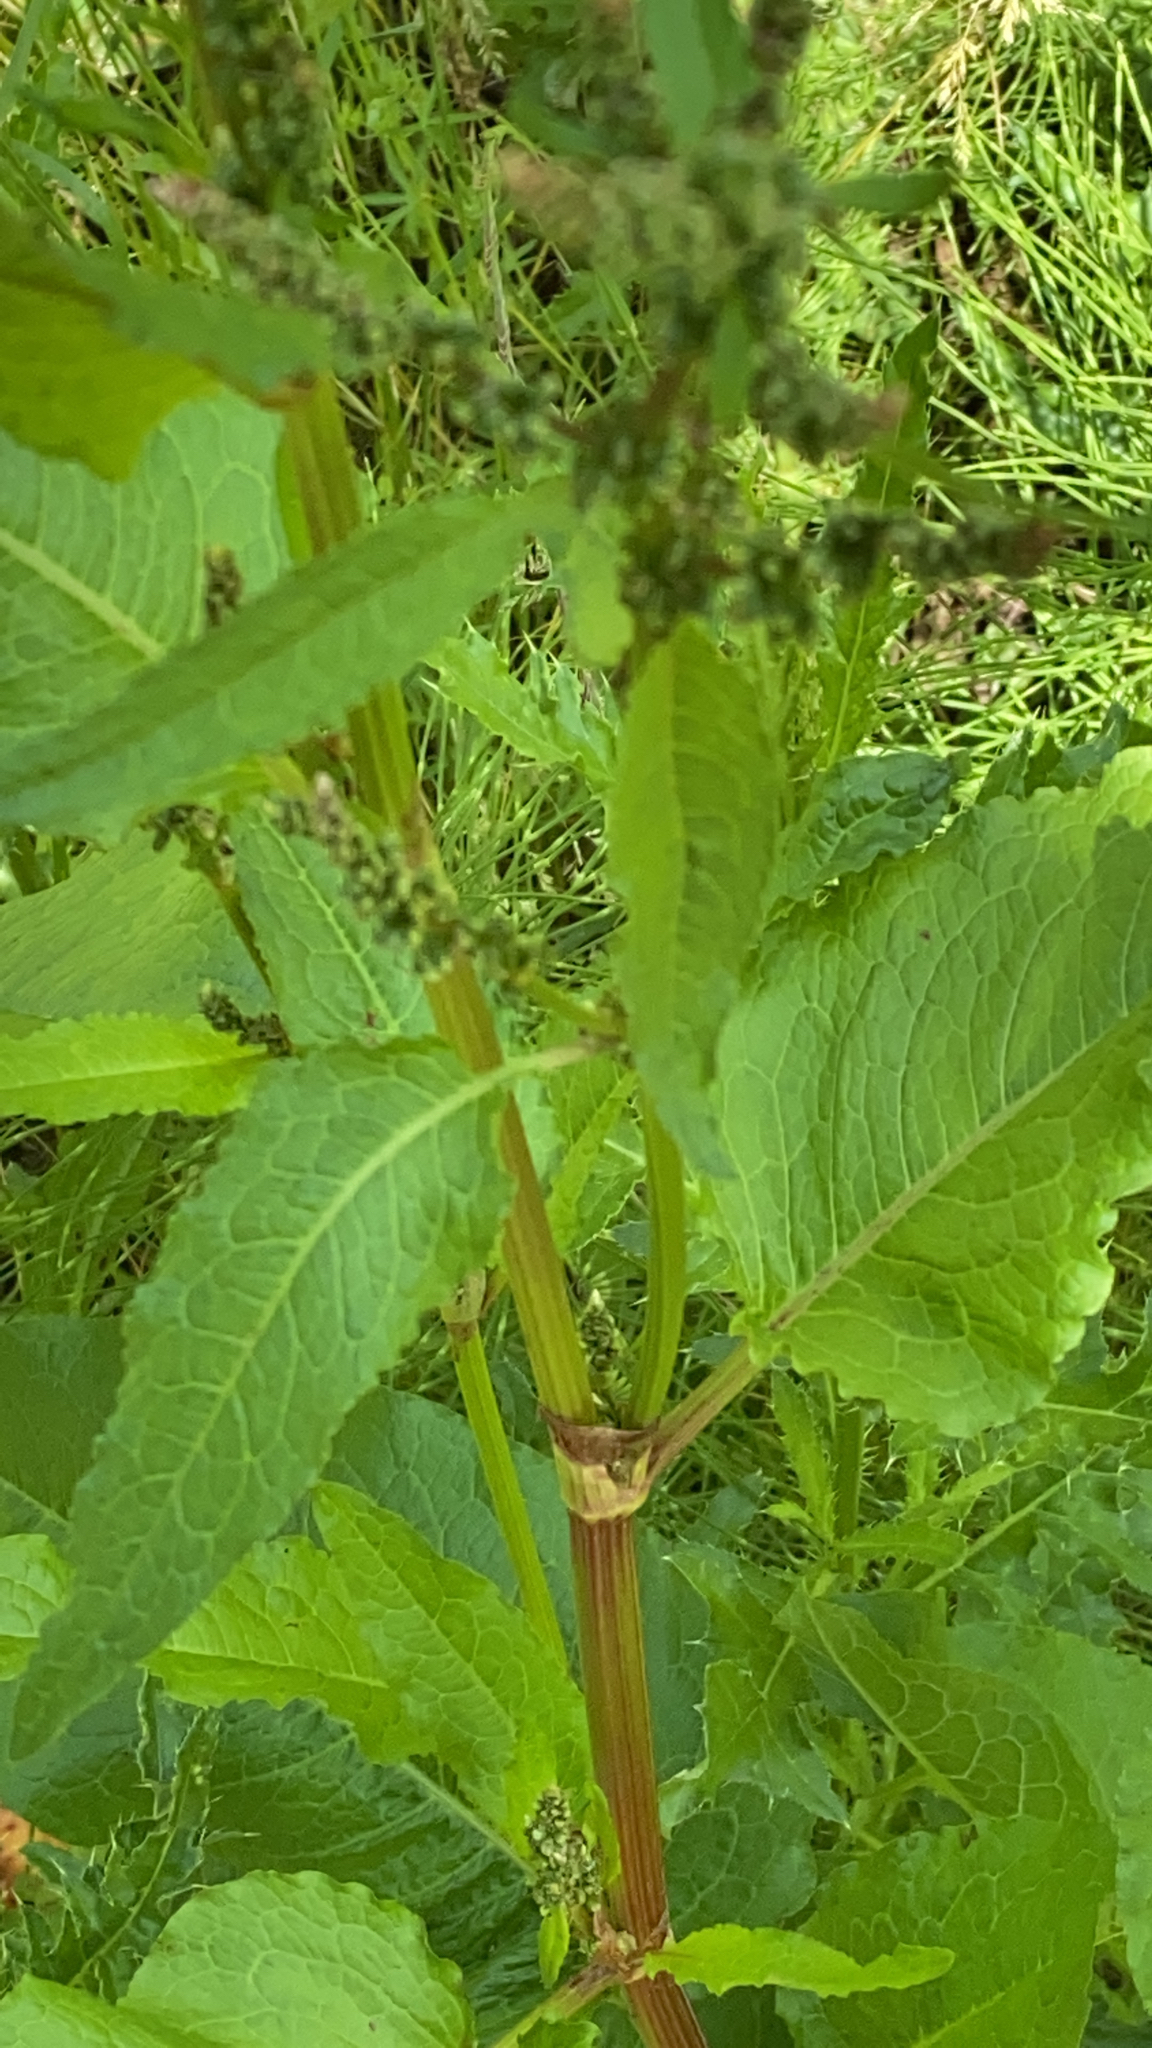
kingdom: Plantae
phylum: Tracheophyta
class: Magnoliopsida
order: Caryophyllales
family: Polygonaceae
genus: Rumex
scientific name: Rumex obtusifolius
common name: Bitter dock
